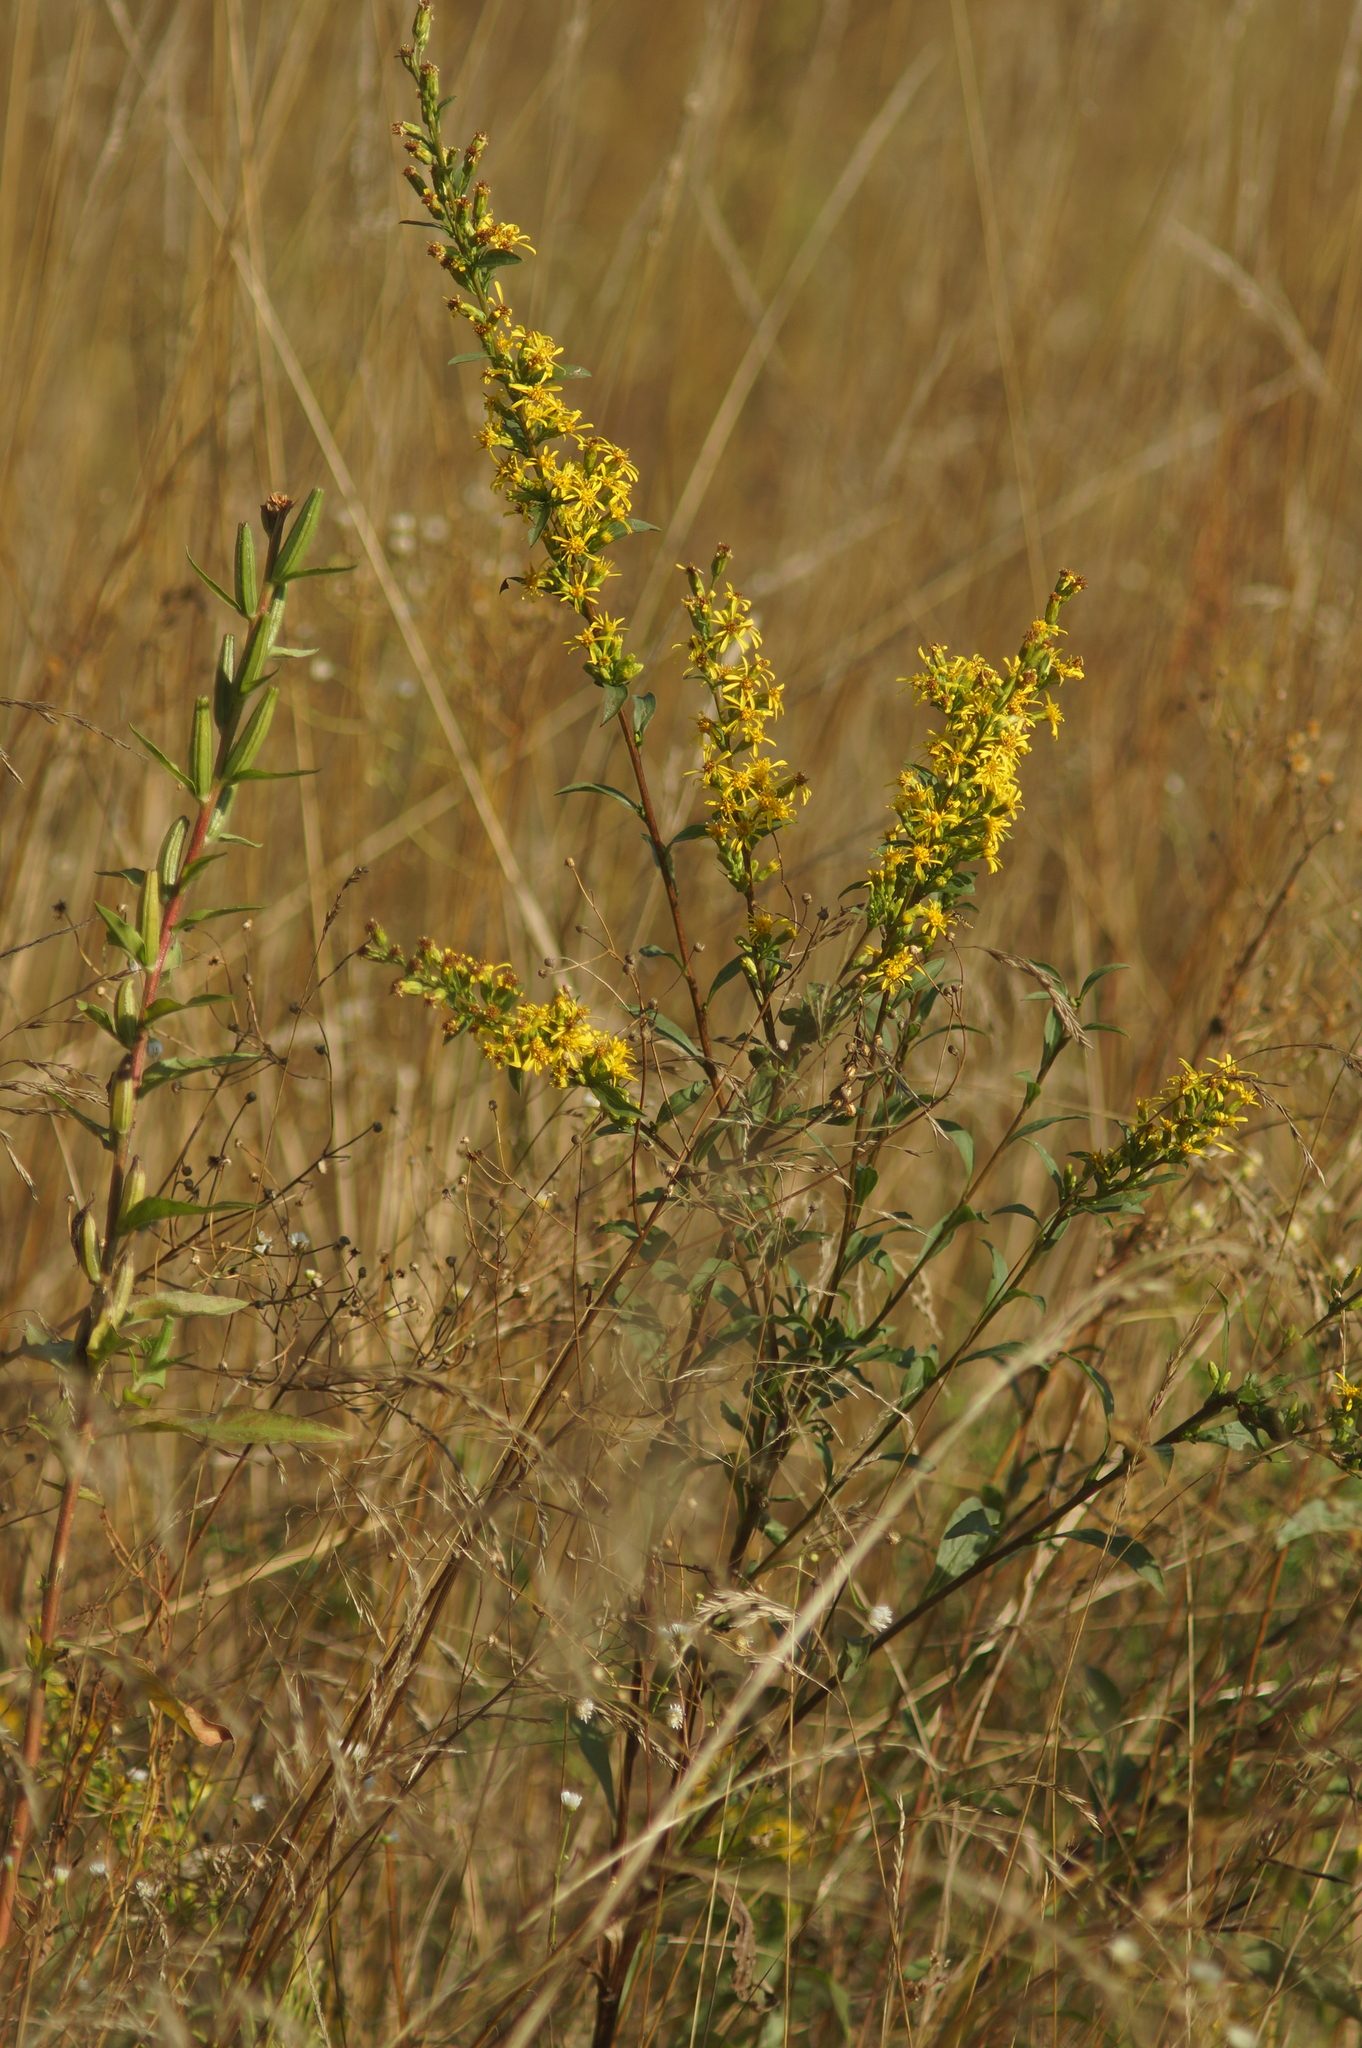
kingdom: Plantae
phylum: Tracheophyta
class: Magnoliopsida
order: Asterales
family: Asteraceae
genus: Solidago
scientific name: Solidago virgaurea
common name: Goldenrod
